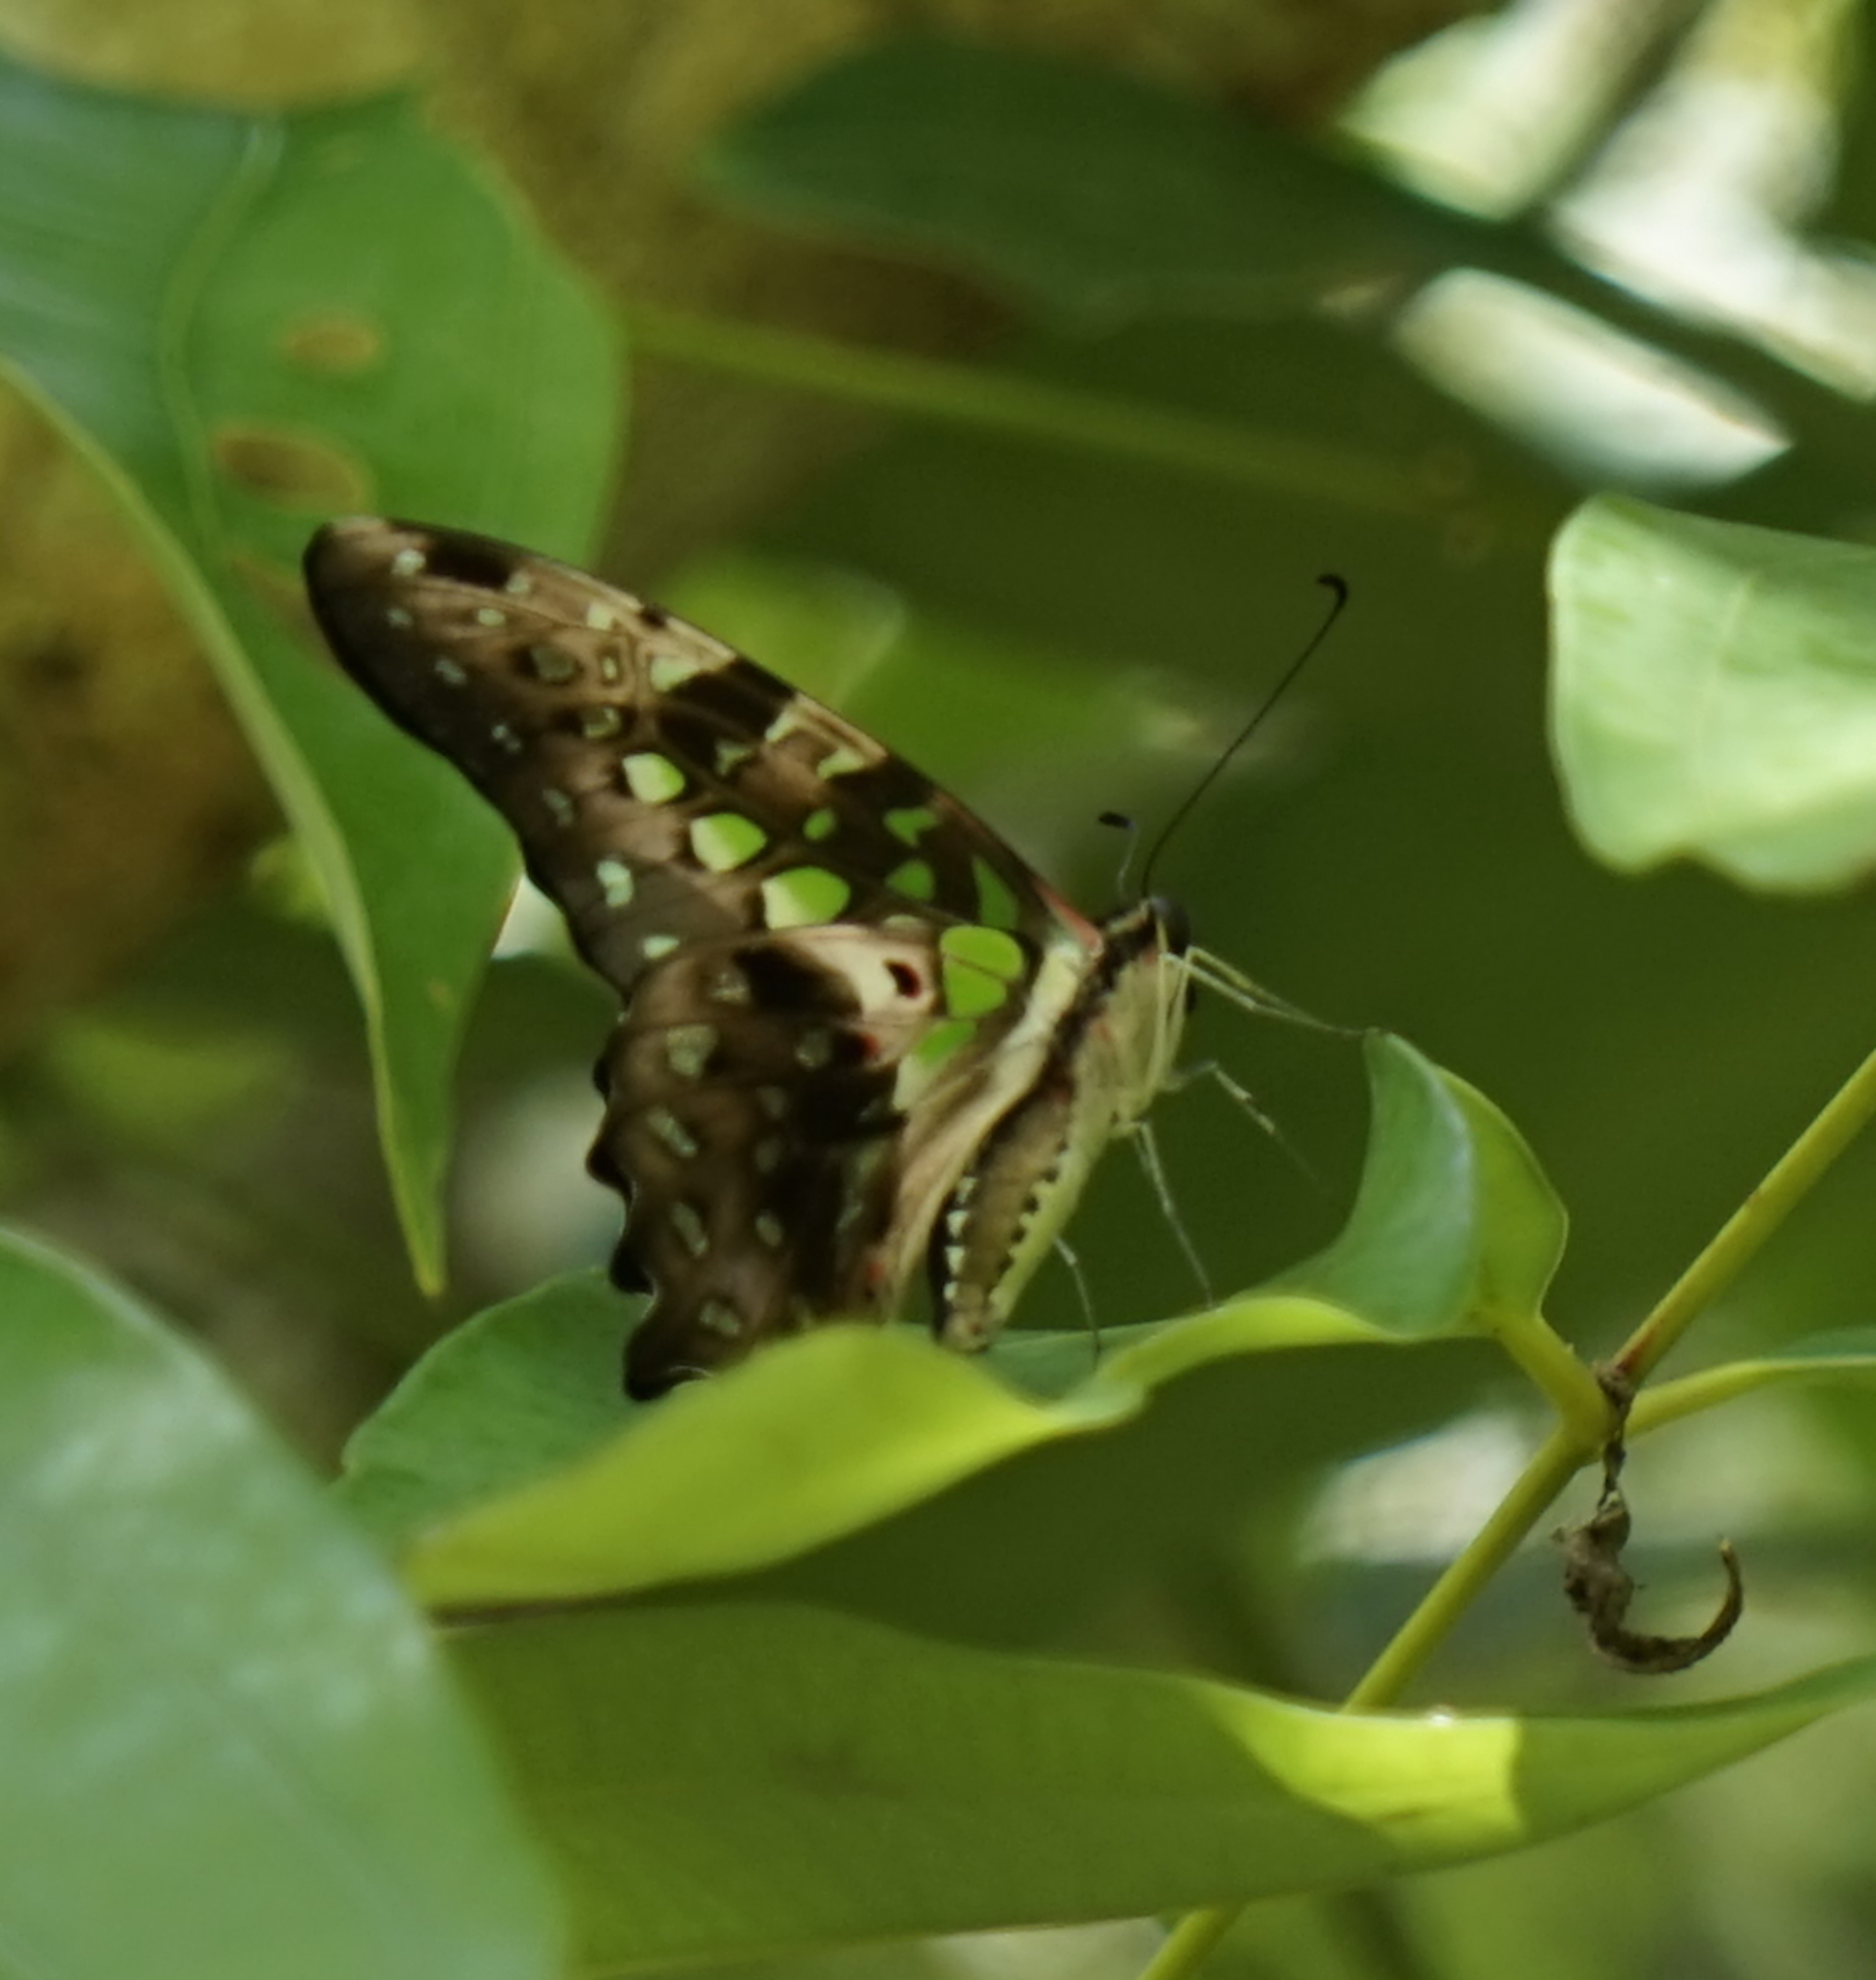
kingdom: Animalia
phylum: Arthropoda
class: Insecta
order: Lepidoptera
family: Papilionidae
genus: Graphium
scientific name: Graphium agamemnon
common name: Tailed jay
